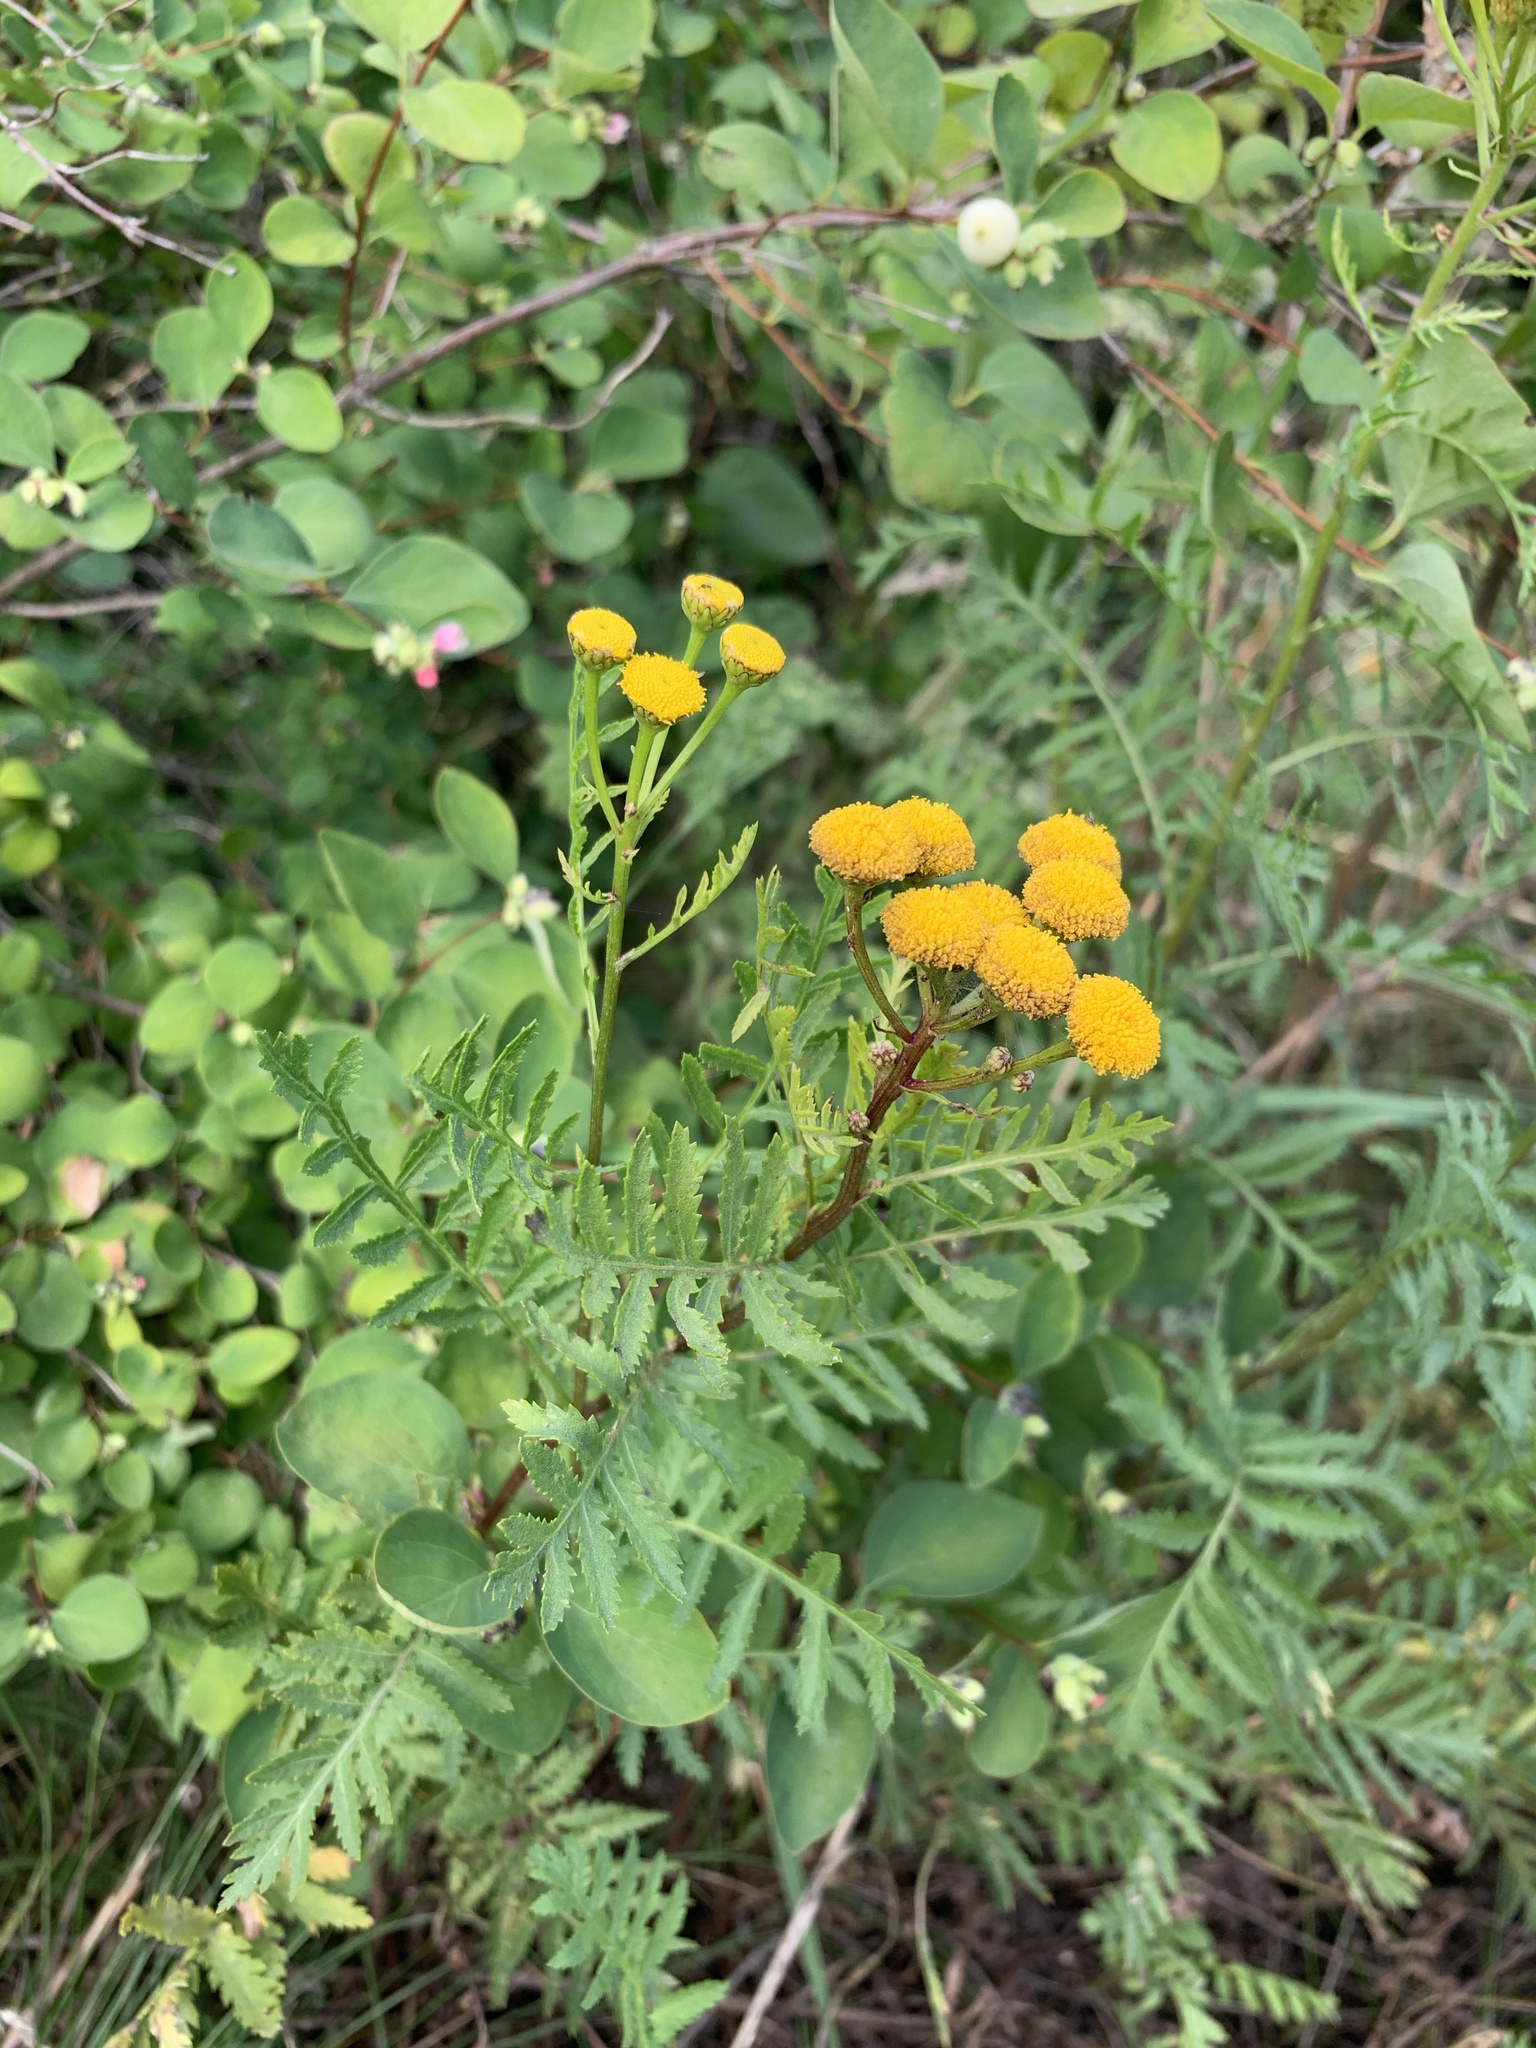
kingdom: Plantae
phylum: Tracheophyta
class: Magnoliopsida
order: Asterales
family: Asteraceae
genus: Tanacetum
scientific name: Tanacetum vulgare
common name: Common tansy
